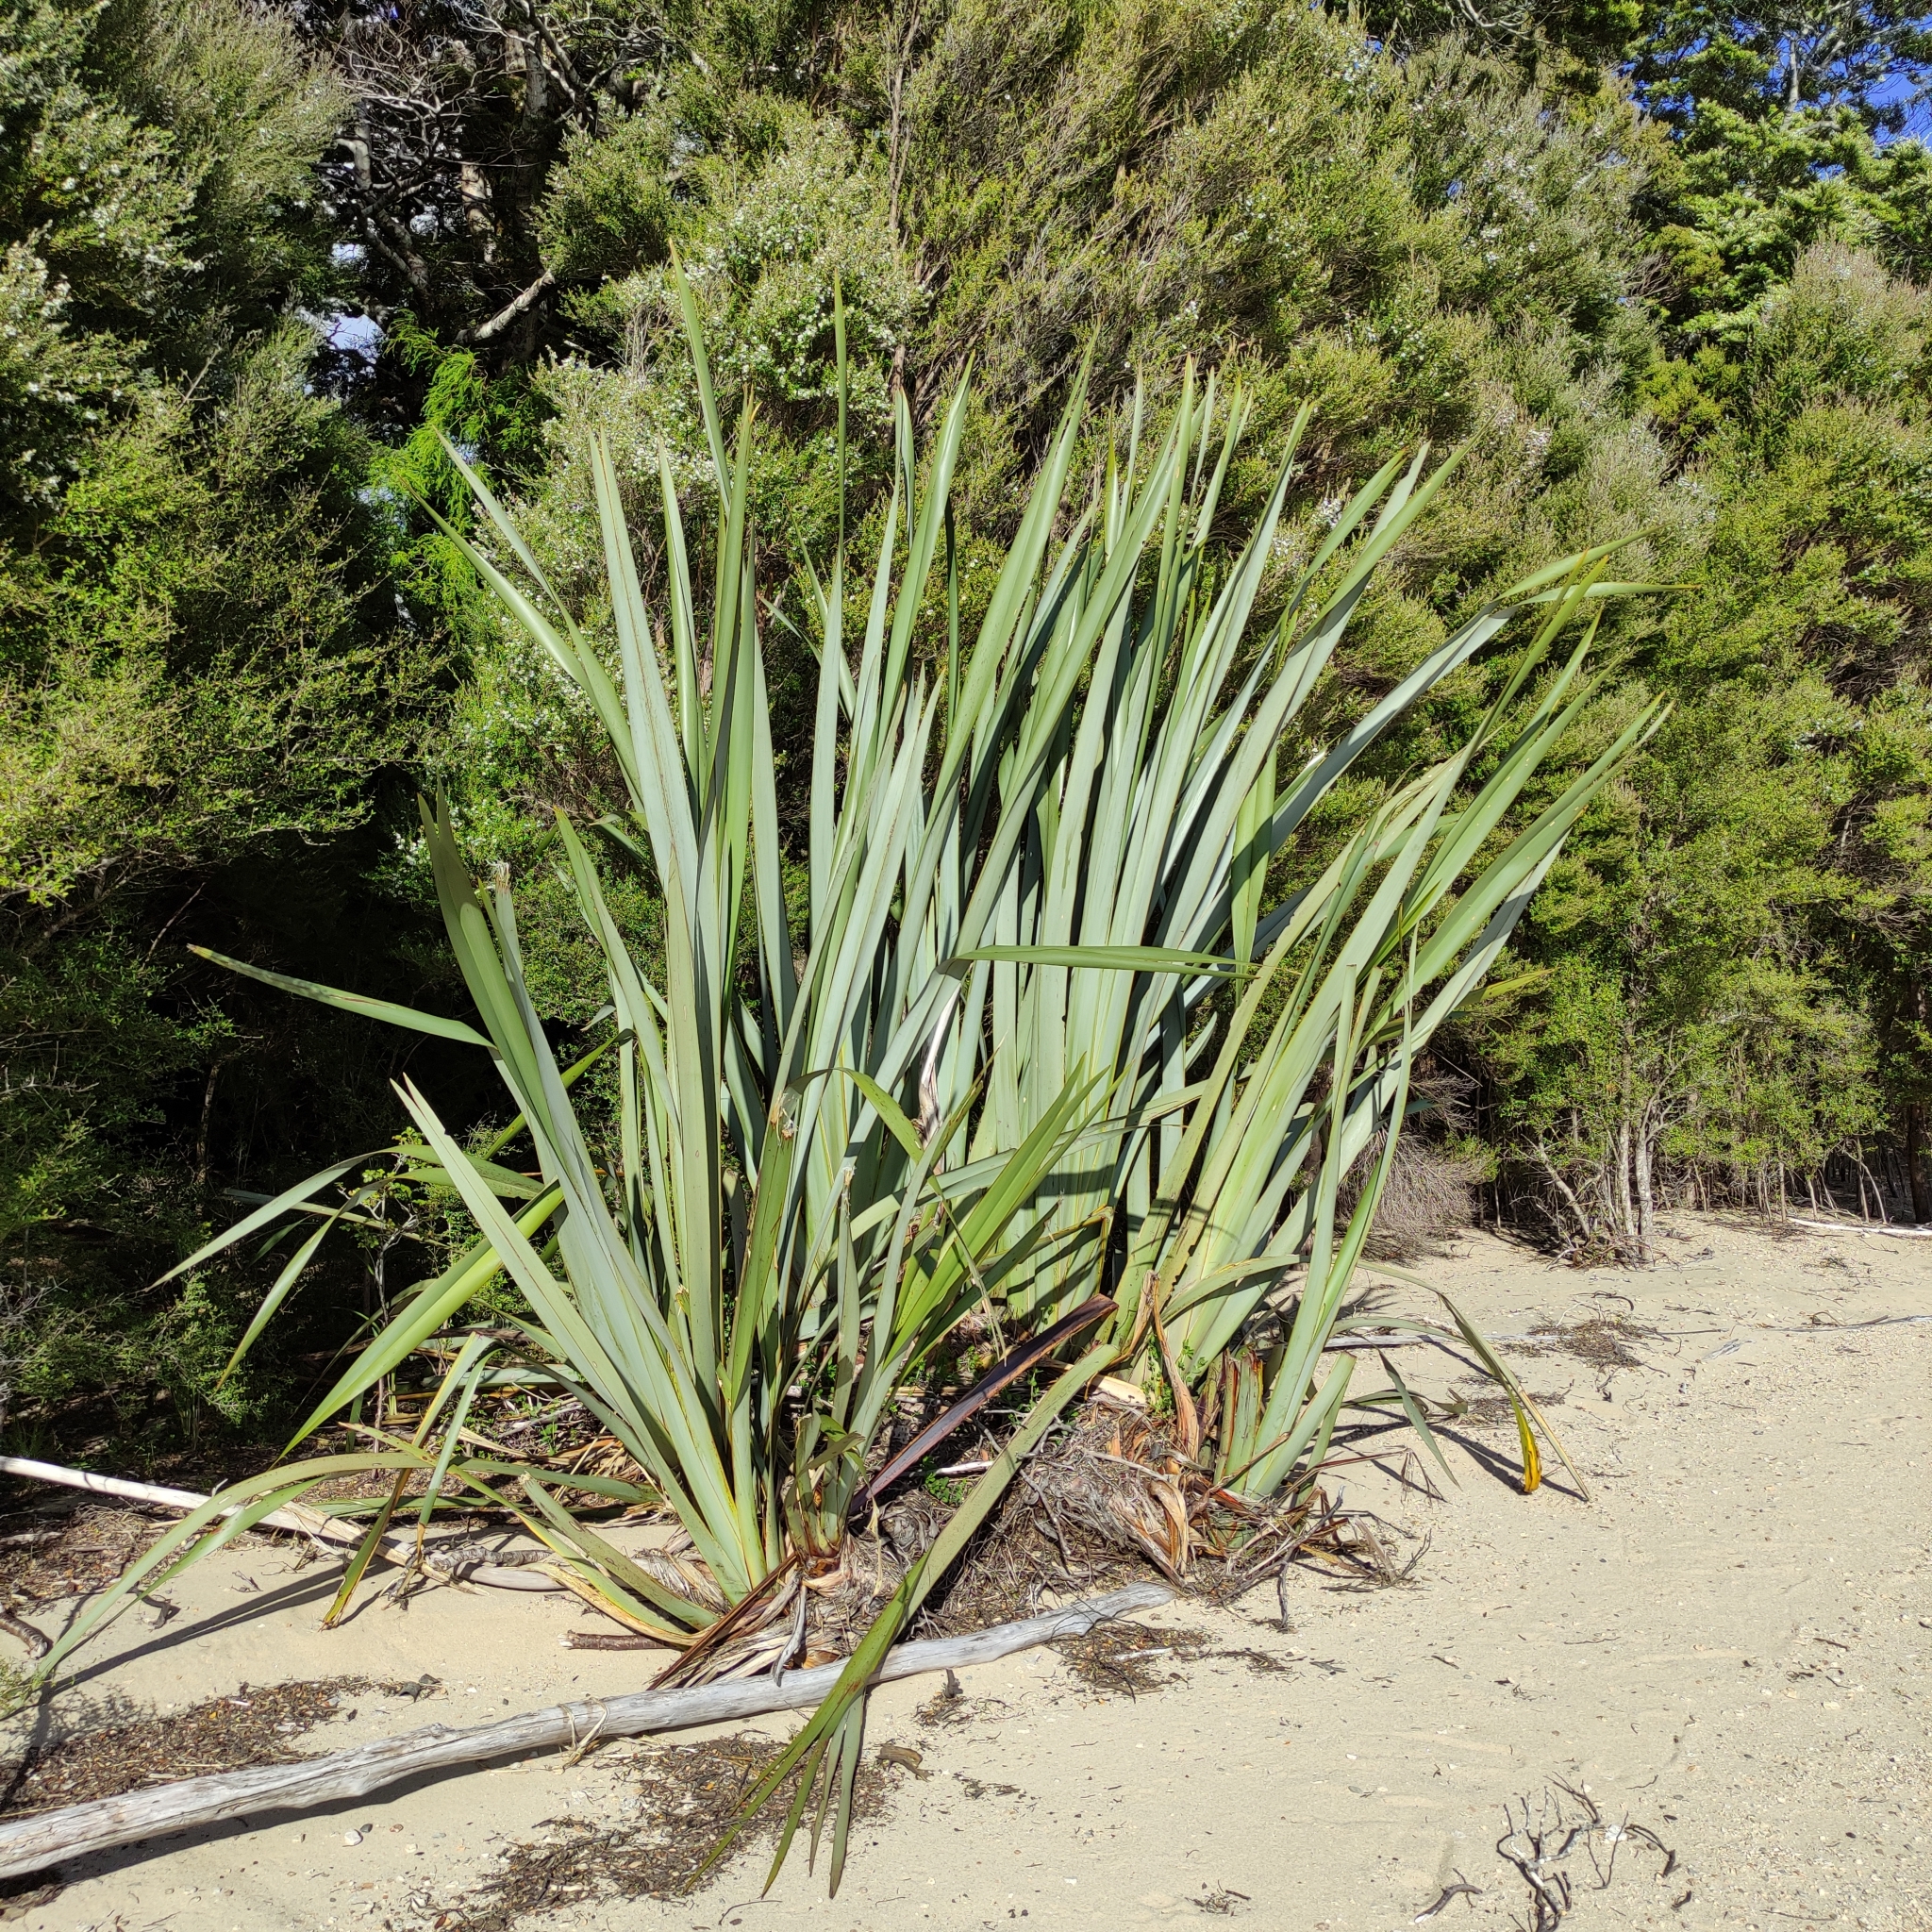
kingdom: Plantae
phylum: Tracheophyta
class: Liliopsida
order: Asparagales
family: Asphodelaceae
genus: Phormium
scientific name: Phormium tenax
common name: New zealand flax
